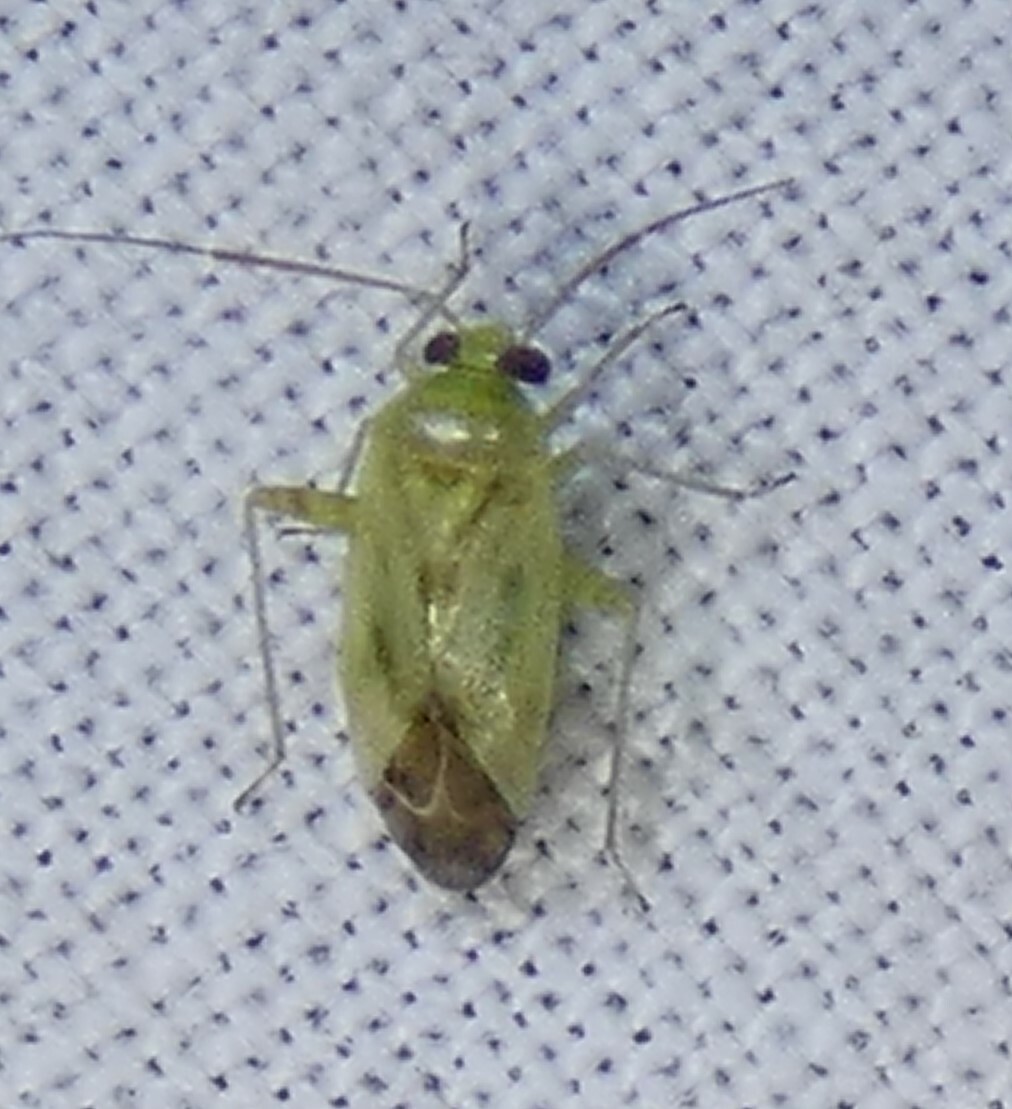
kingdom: Animalia
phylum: Arthropoda
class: Insecta
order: Hemiptera
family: Miridae
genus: Taylorilygus
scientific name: Taylorilygus apicalis
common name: Plant bug
